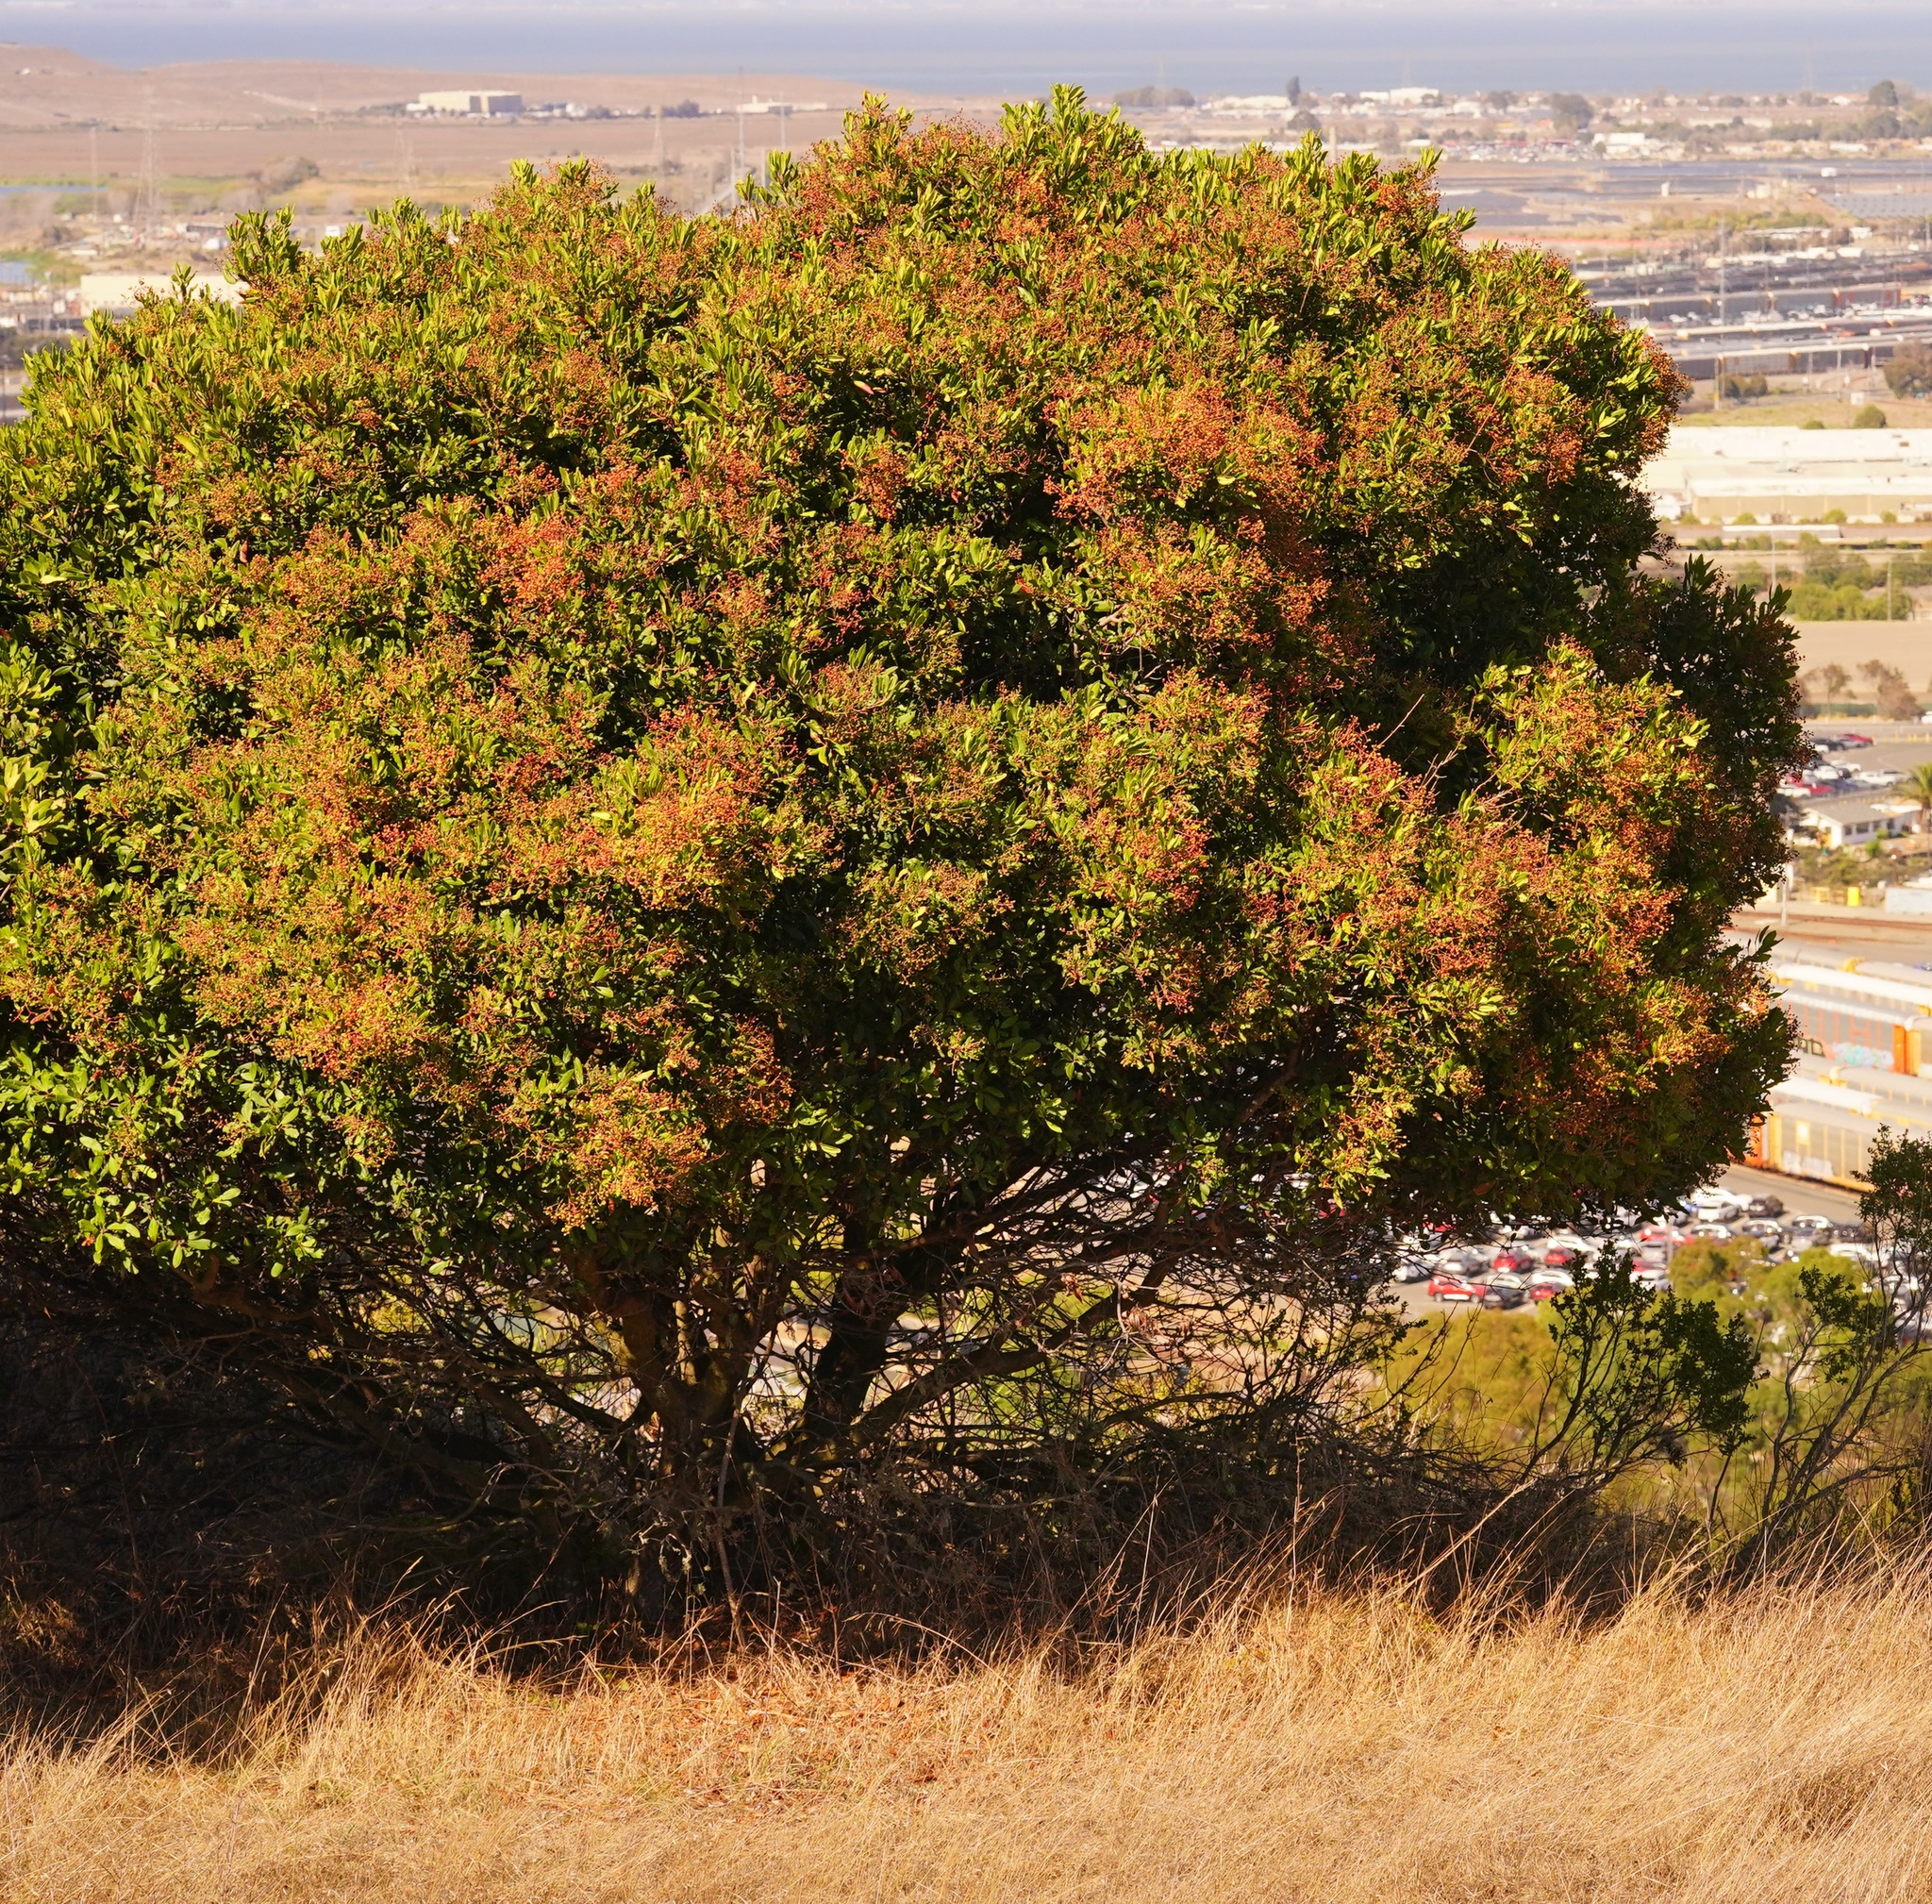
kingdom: Plantae
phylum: Tracheophyta
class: Magnoliopsida
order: Rosales
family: Rosaceae
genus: Heteromeles
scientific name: Heteromeles arbutifolia
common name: California-holly
